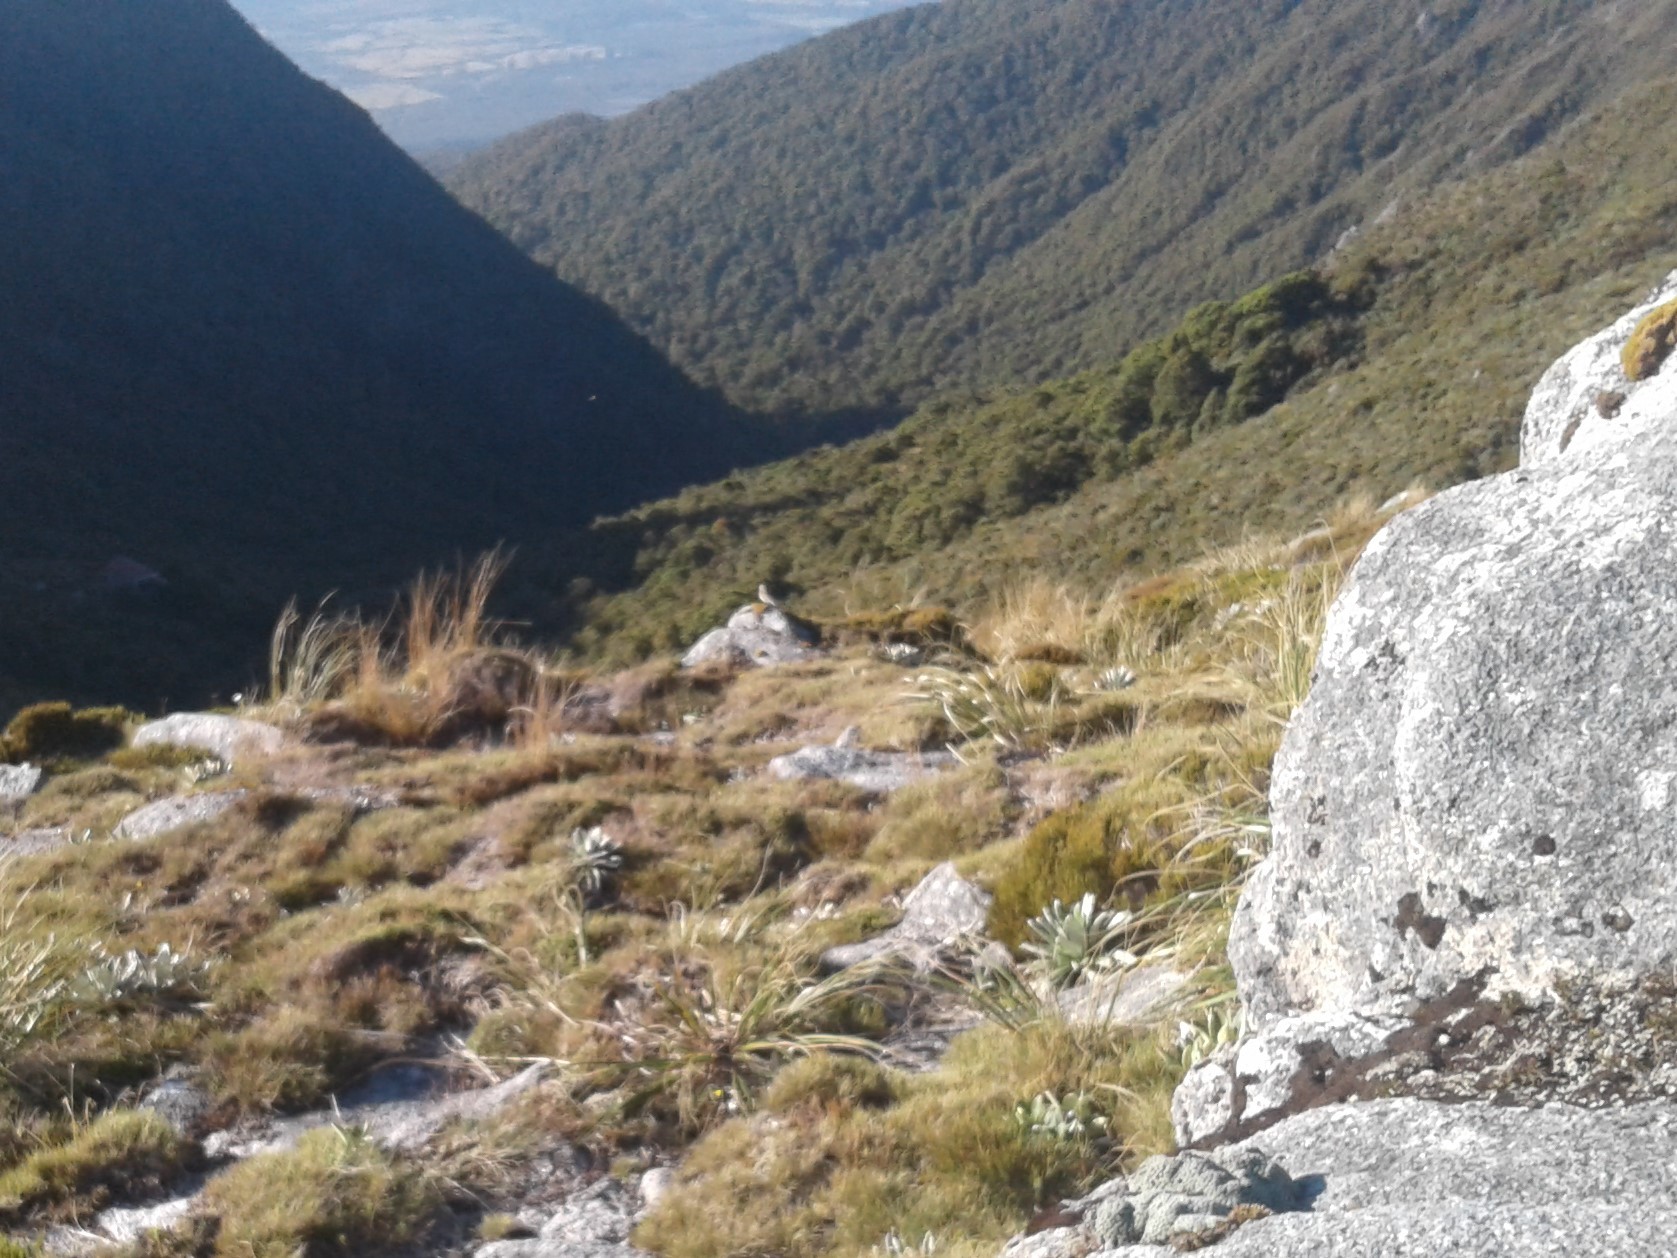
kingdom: Animalia
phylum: Chordata
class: Aves
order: Passeriformes
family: Motacillidae
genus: Anthus
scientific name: Anthus novaeseelandiae
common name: New zealand pipit
